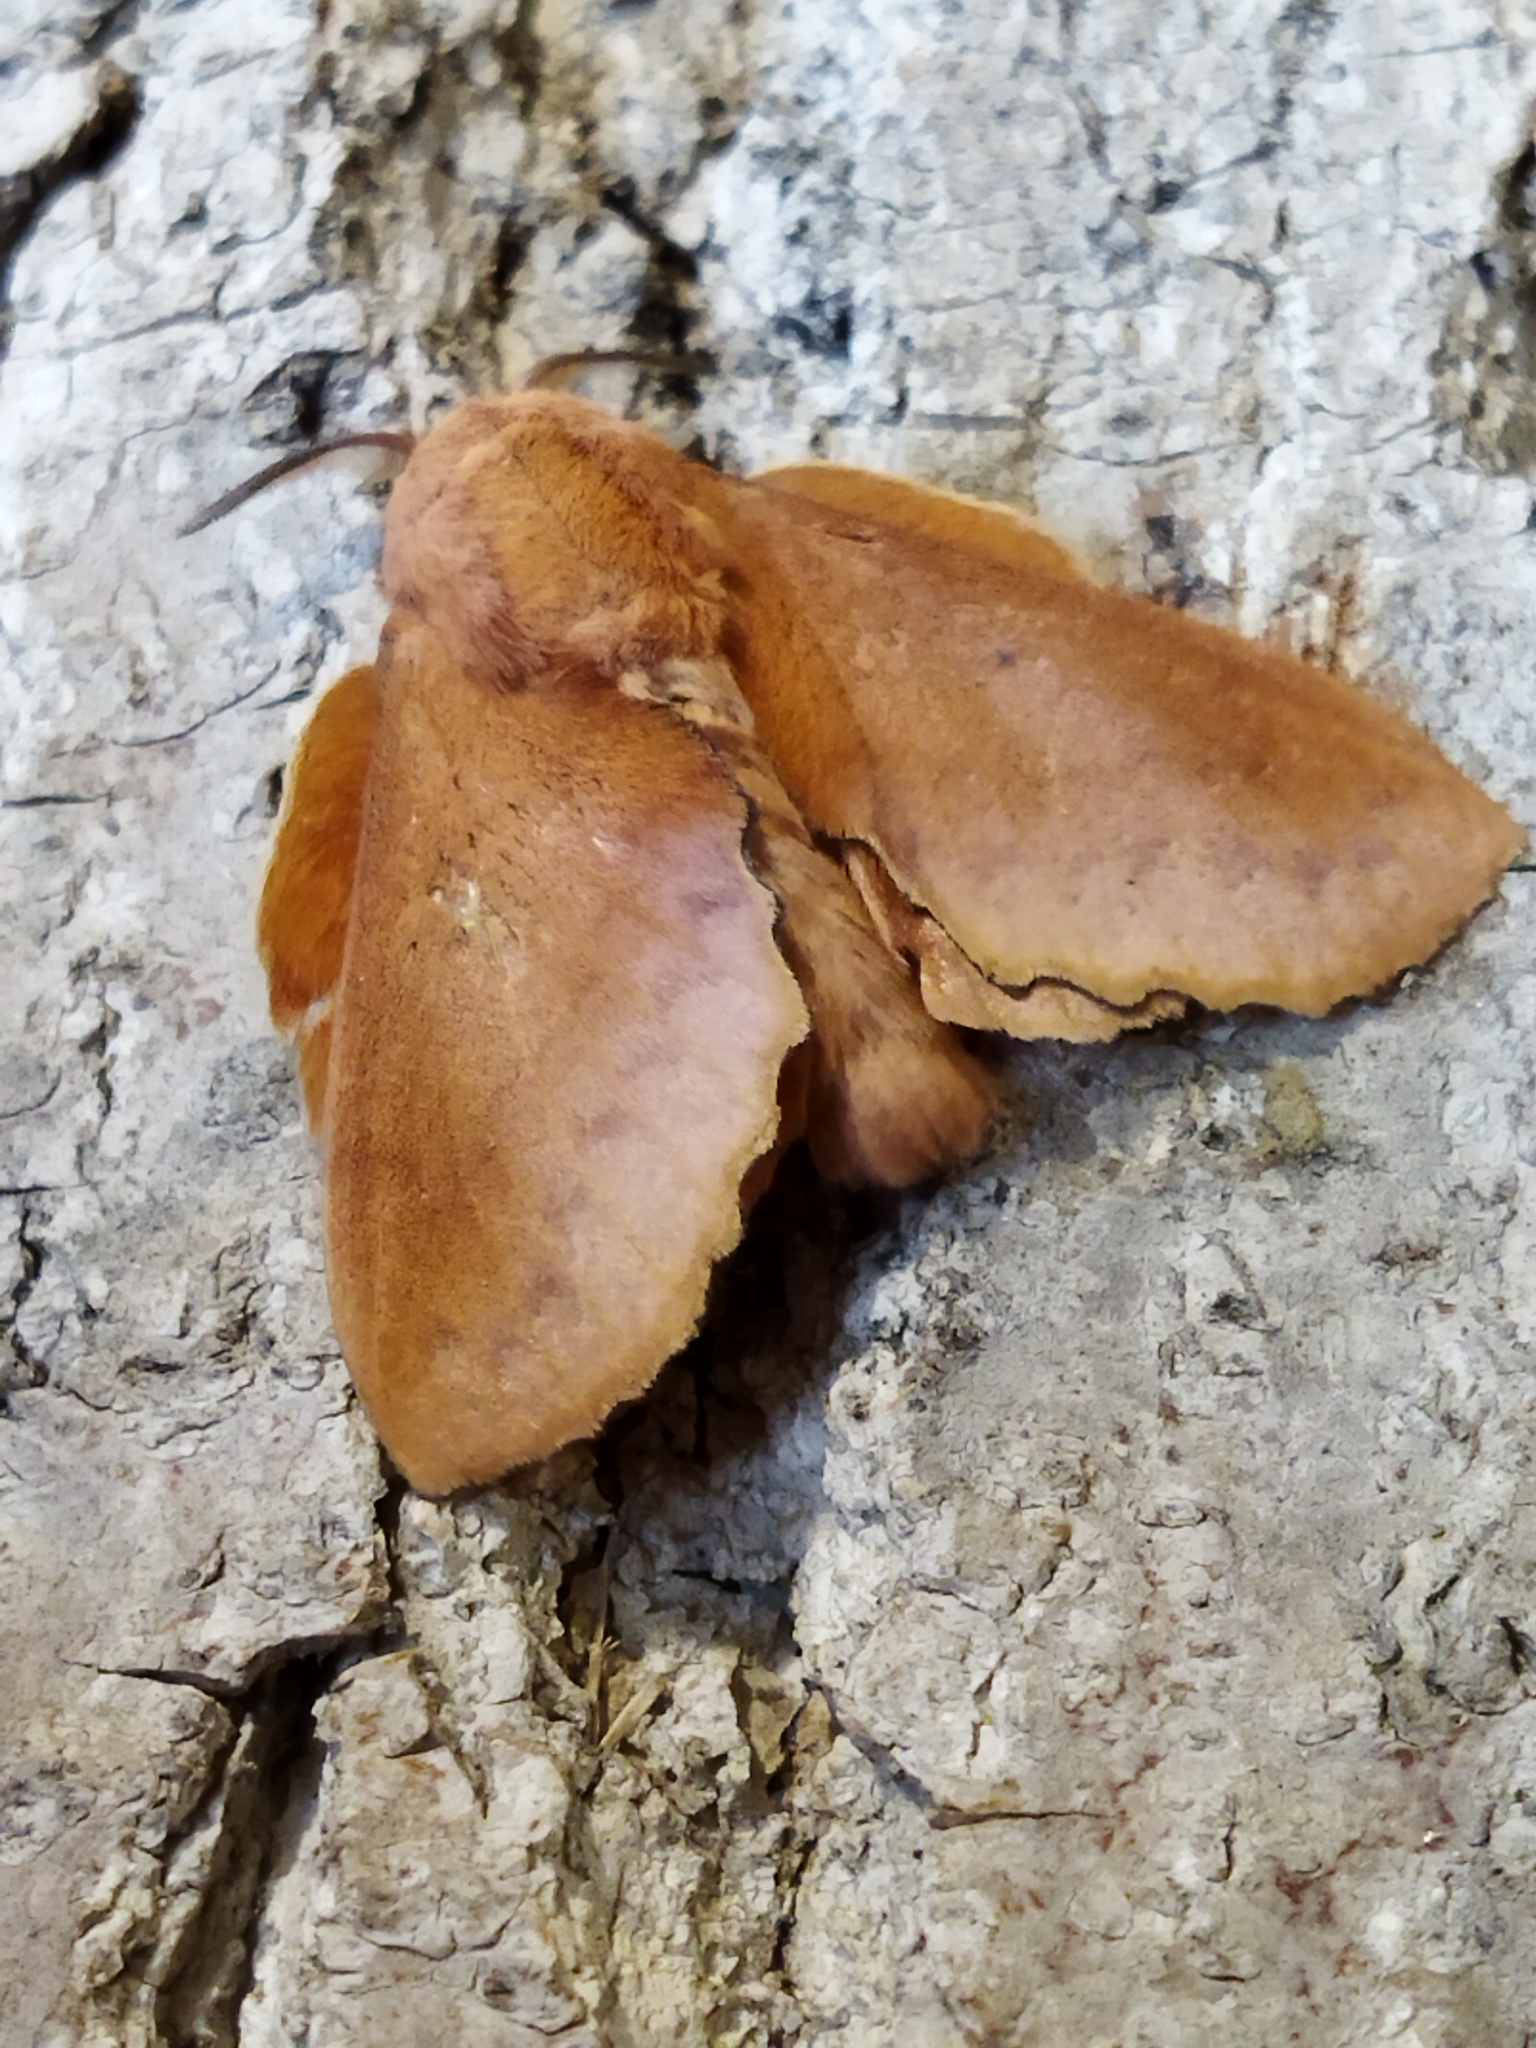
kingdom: Animalia
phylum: Arthropoda
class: Insecta
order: Lepidoptera
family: Lasiocampidae
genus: Gastropacha
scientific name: Gastropacha quercifolia
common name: Lappet
